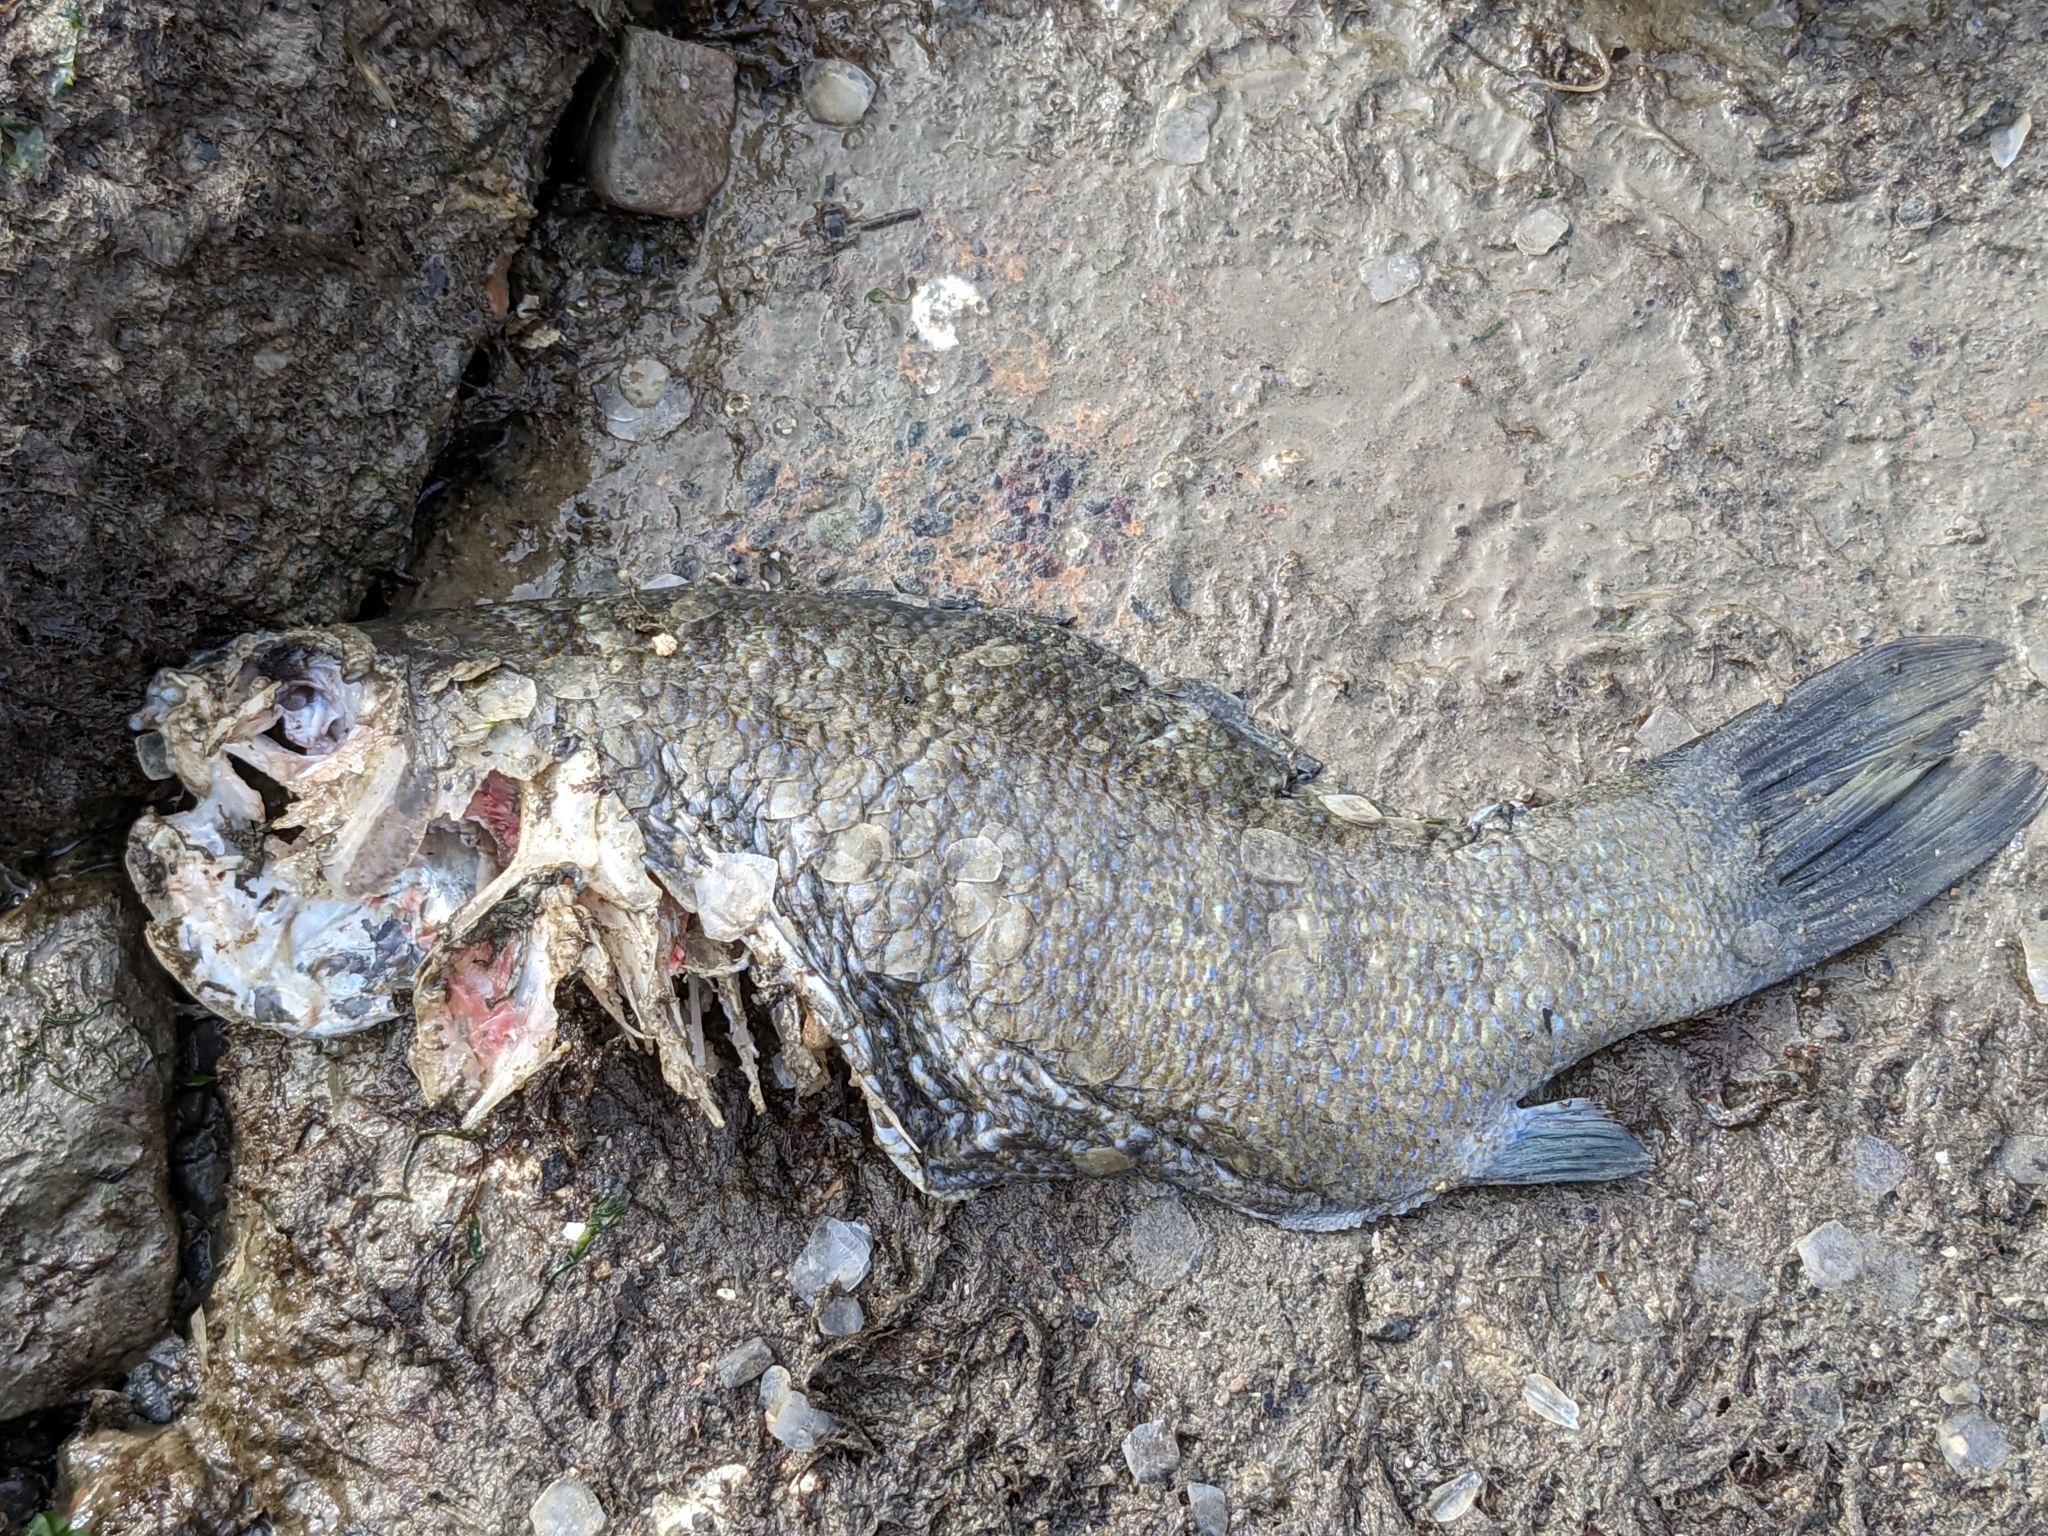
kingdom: Animalia
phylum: Chordata
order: Perciformes
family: Embiotocidae
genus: Embiotoca
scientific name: Embiotoca jacksoni
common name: Black perch
